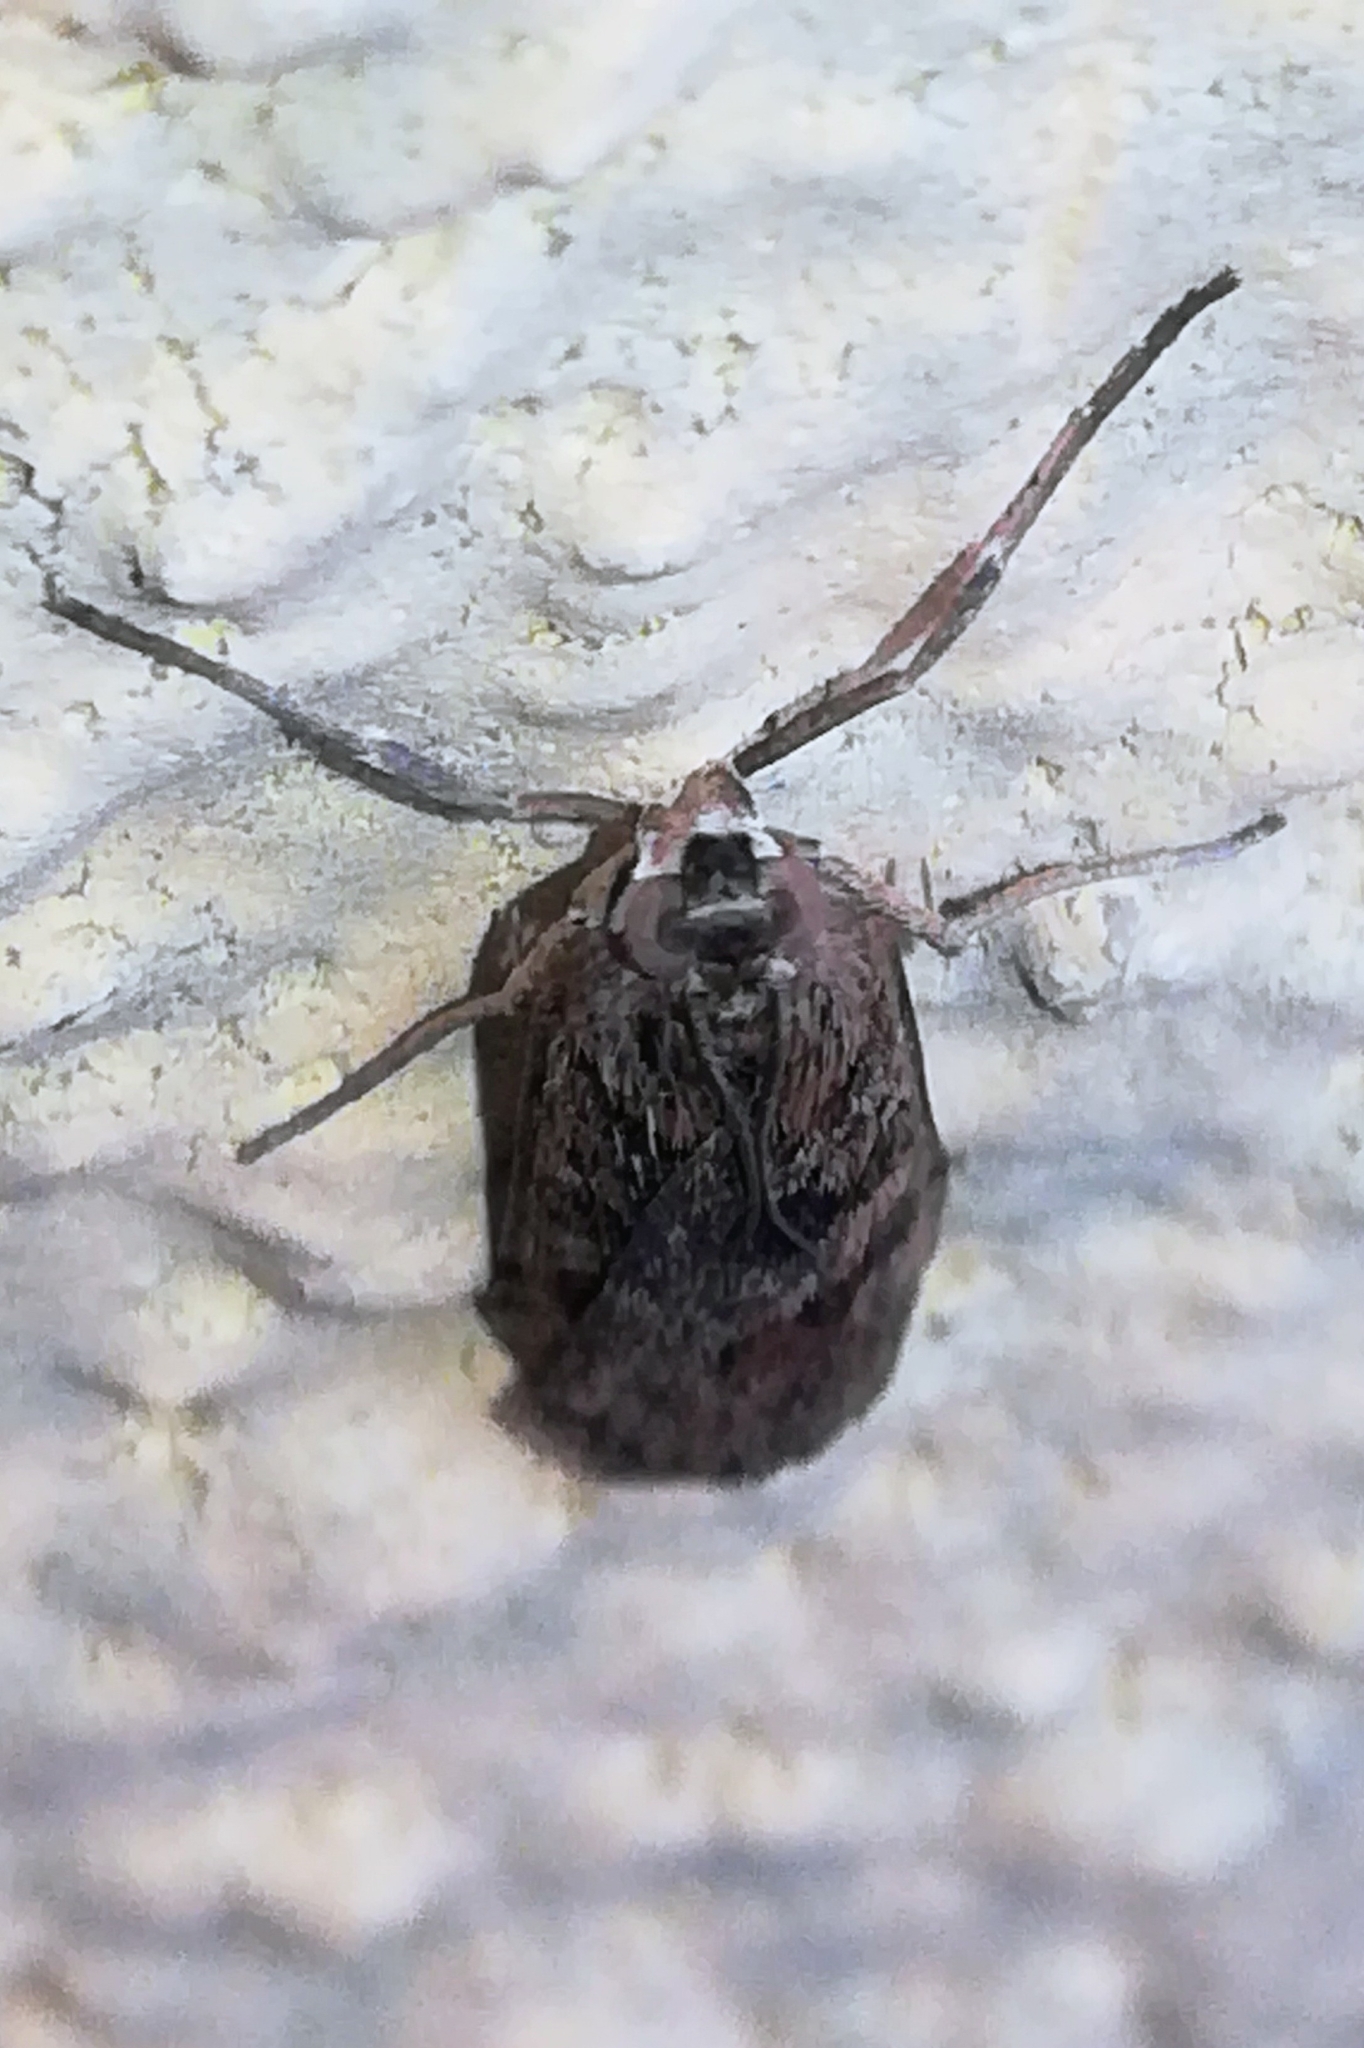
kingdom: Animalia
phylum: Arthropoda
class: Insecta
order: Lepidoptera
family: Crambidae
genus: Nomophila
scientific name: Nomophila noctuella
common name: Rush veneer
